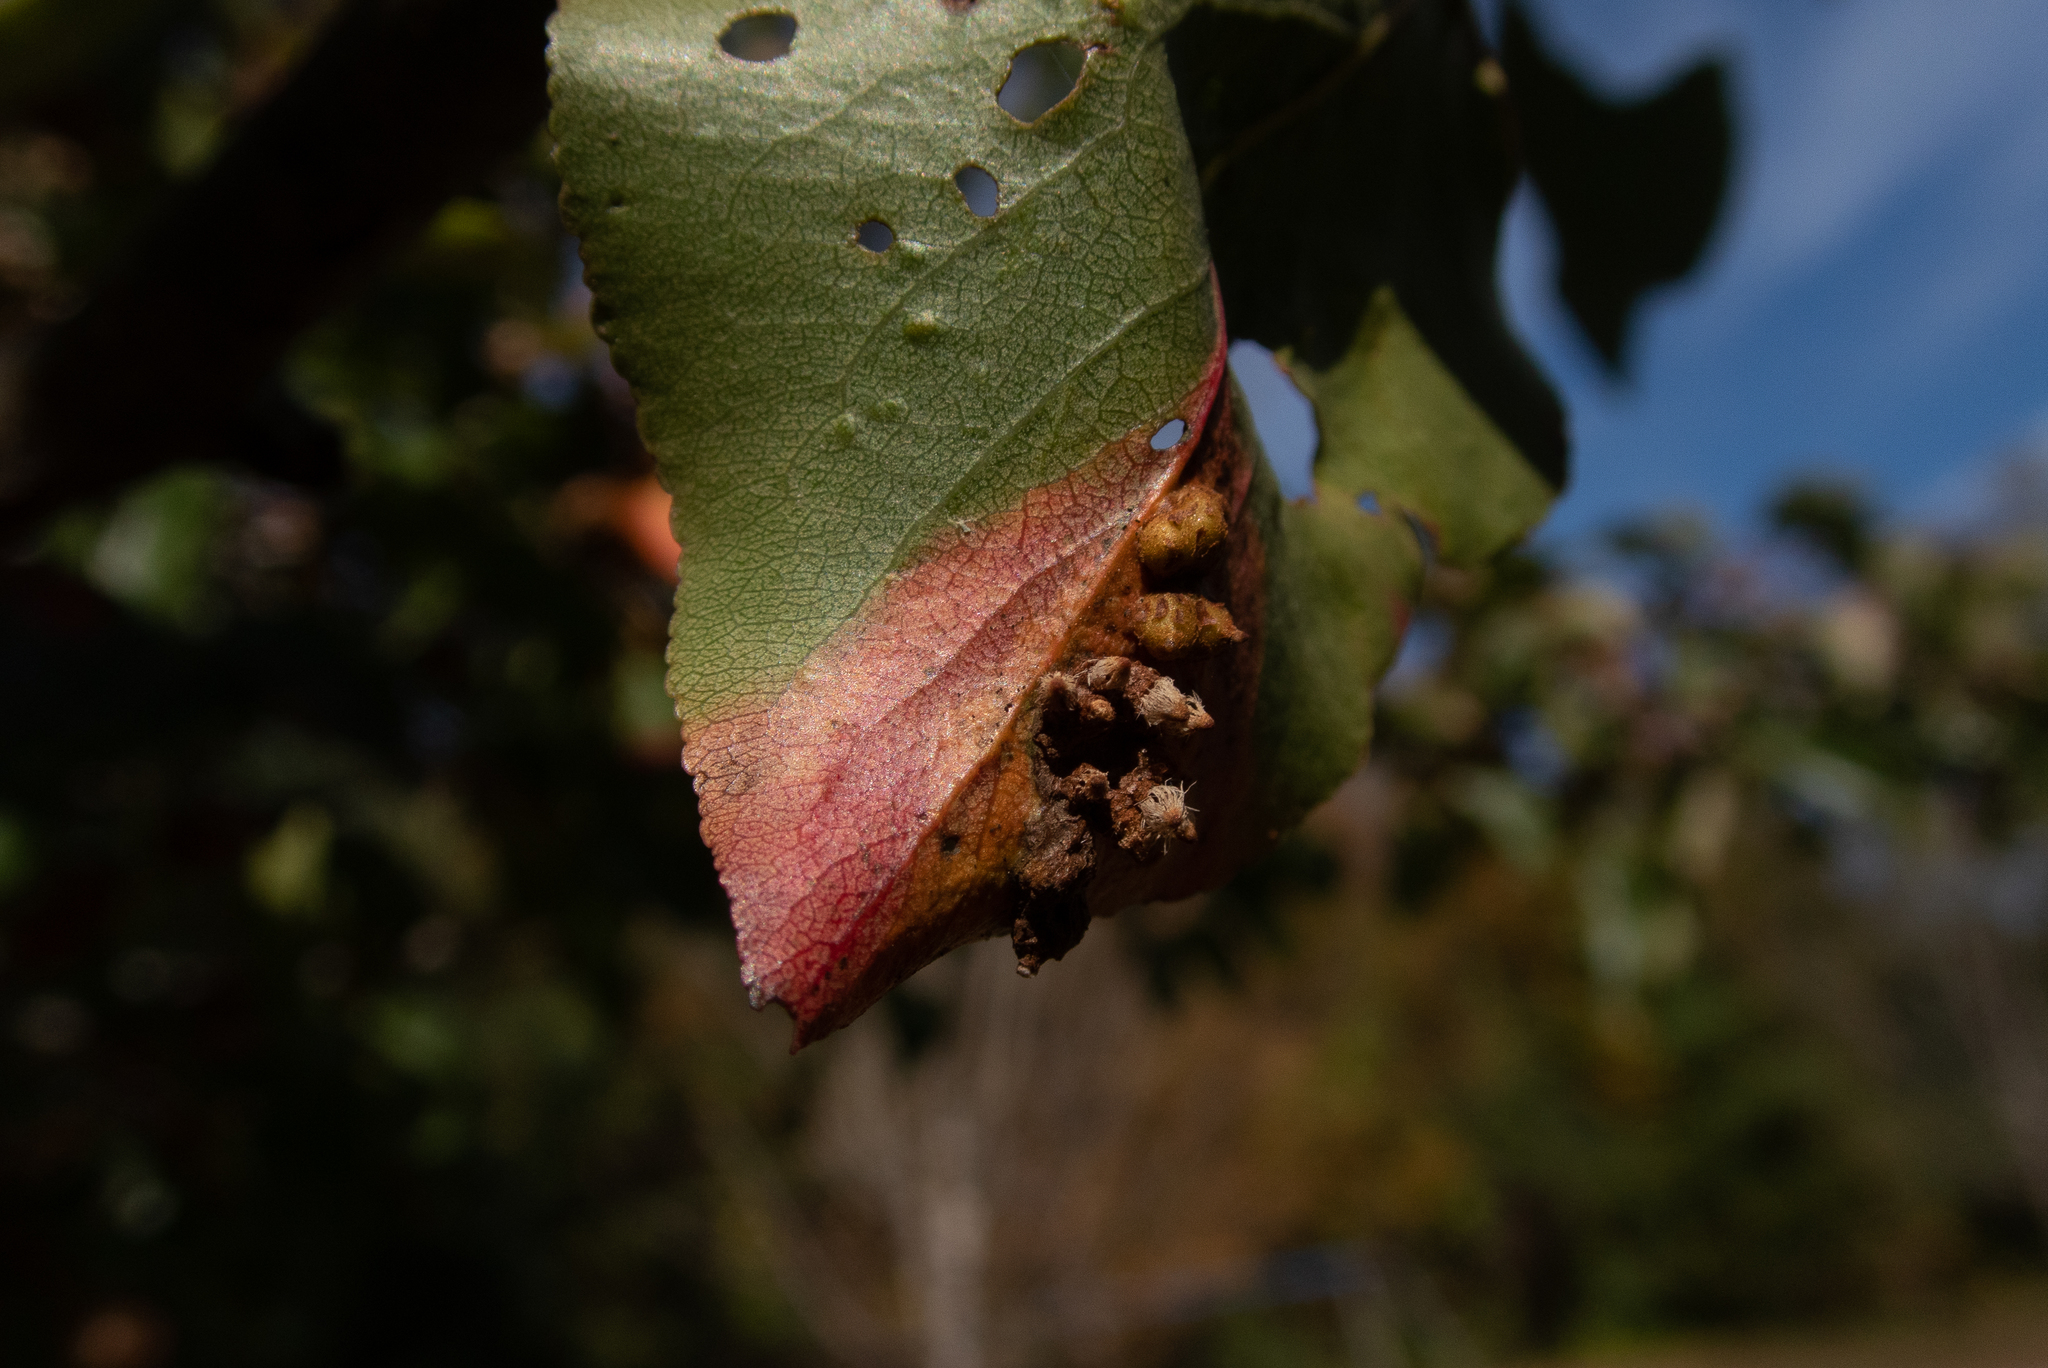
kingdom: Fungi
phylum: Basidiomycota
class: Pucciniomycetes
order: Pucciniales
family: Gymnosporangiaceae
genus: Gymnosporangium
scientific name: Gymnosporangium sabinae
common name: Pear trellis rust fungus
